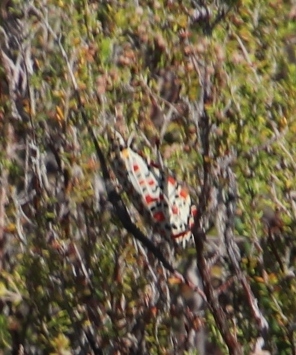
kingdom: Animalia
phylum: Arthropoda
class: Insecta
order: Lepidoptera
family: Erebidae
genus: Utetheisa
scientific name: Utetheisa pulchella
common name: Crimson speckled
